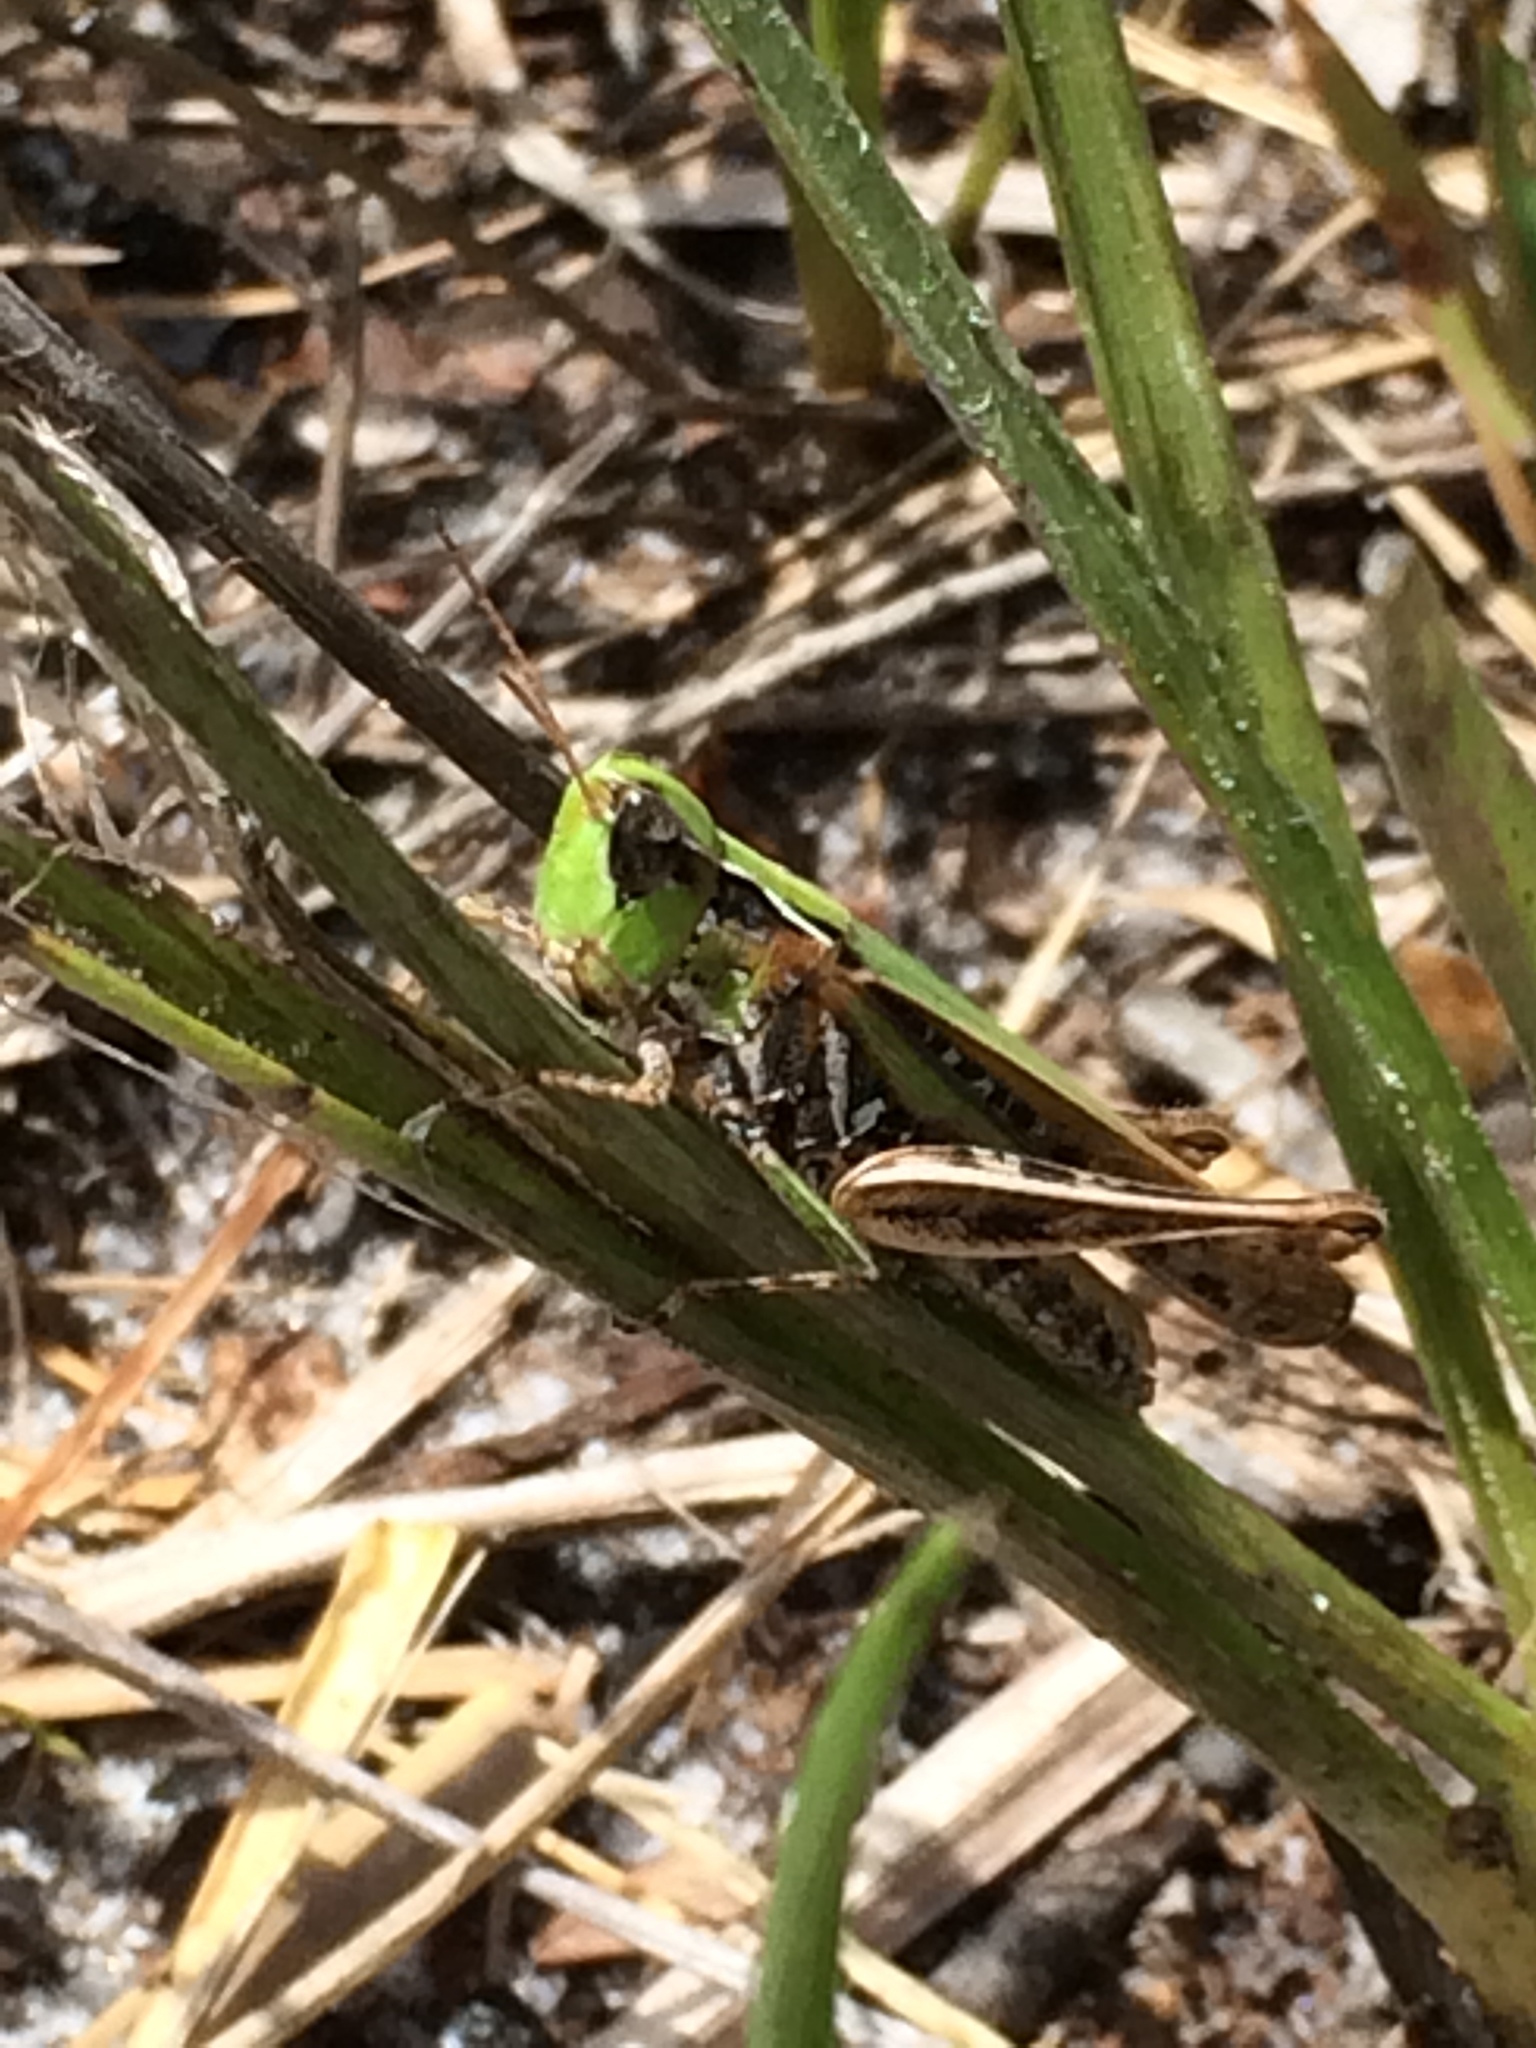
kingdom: Animalia
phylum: Arthropoda
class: Insecta
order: Orthoptera
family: Acrididae
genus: Orphulella
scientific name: Orphulella pelidna
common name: Spotted-wing grasshopper
